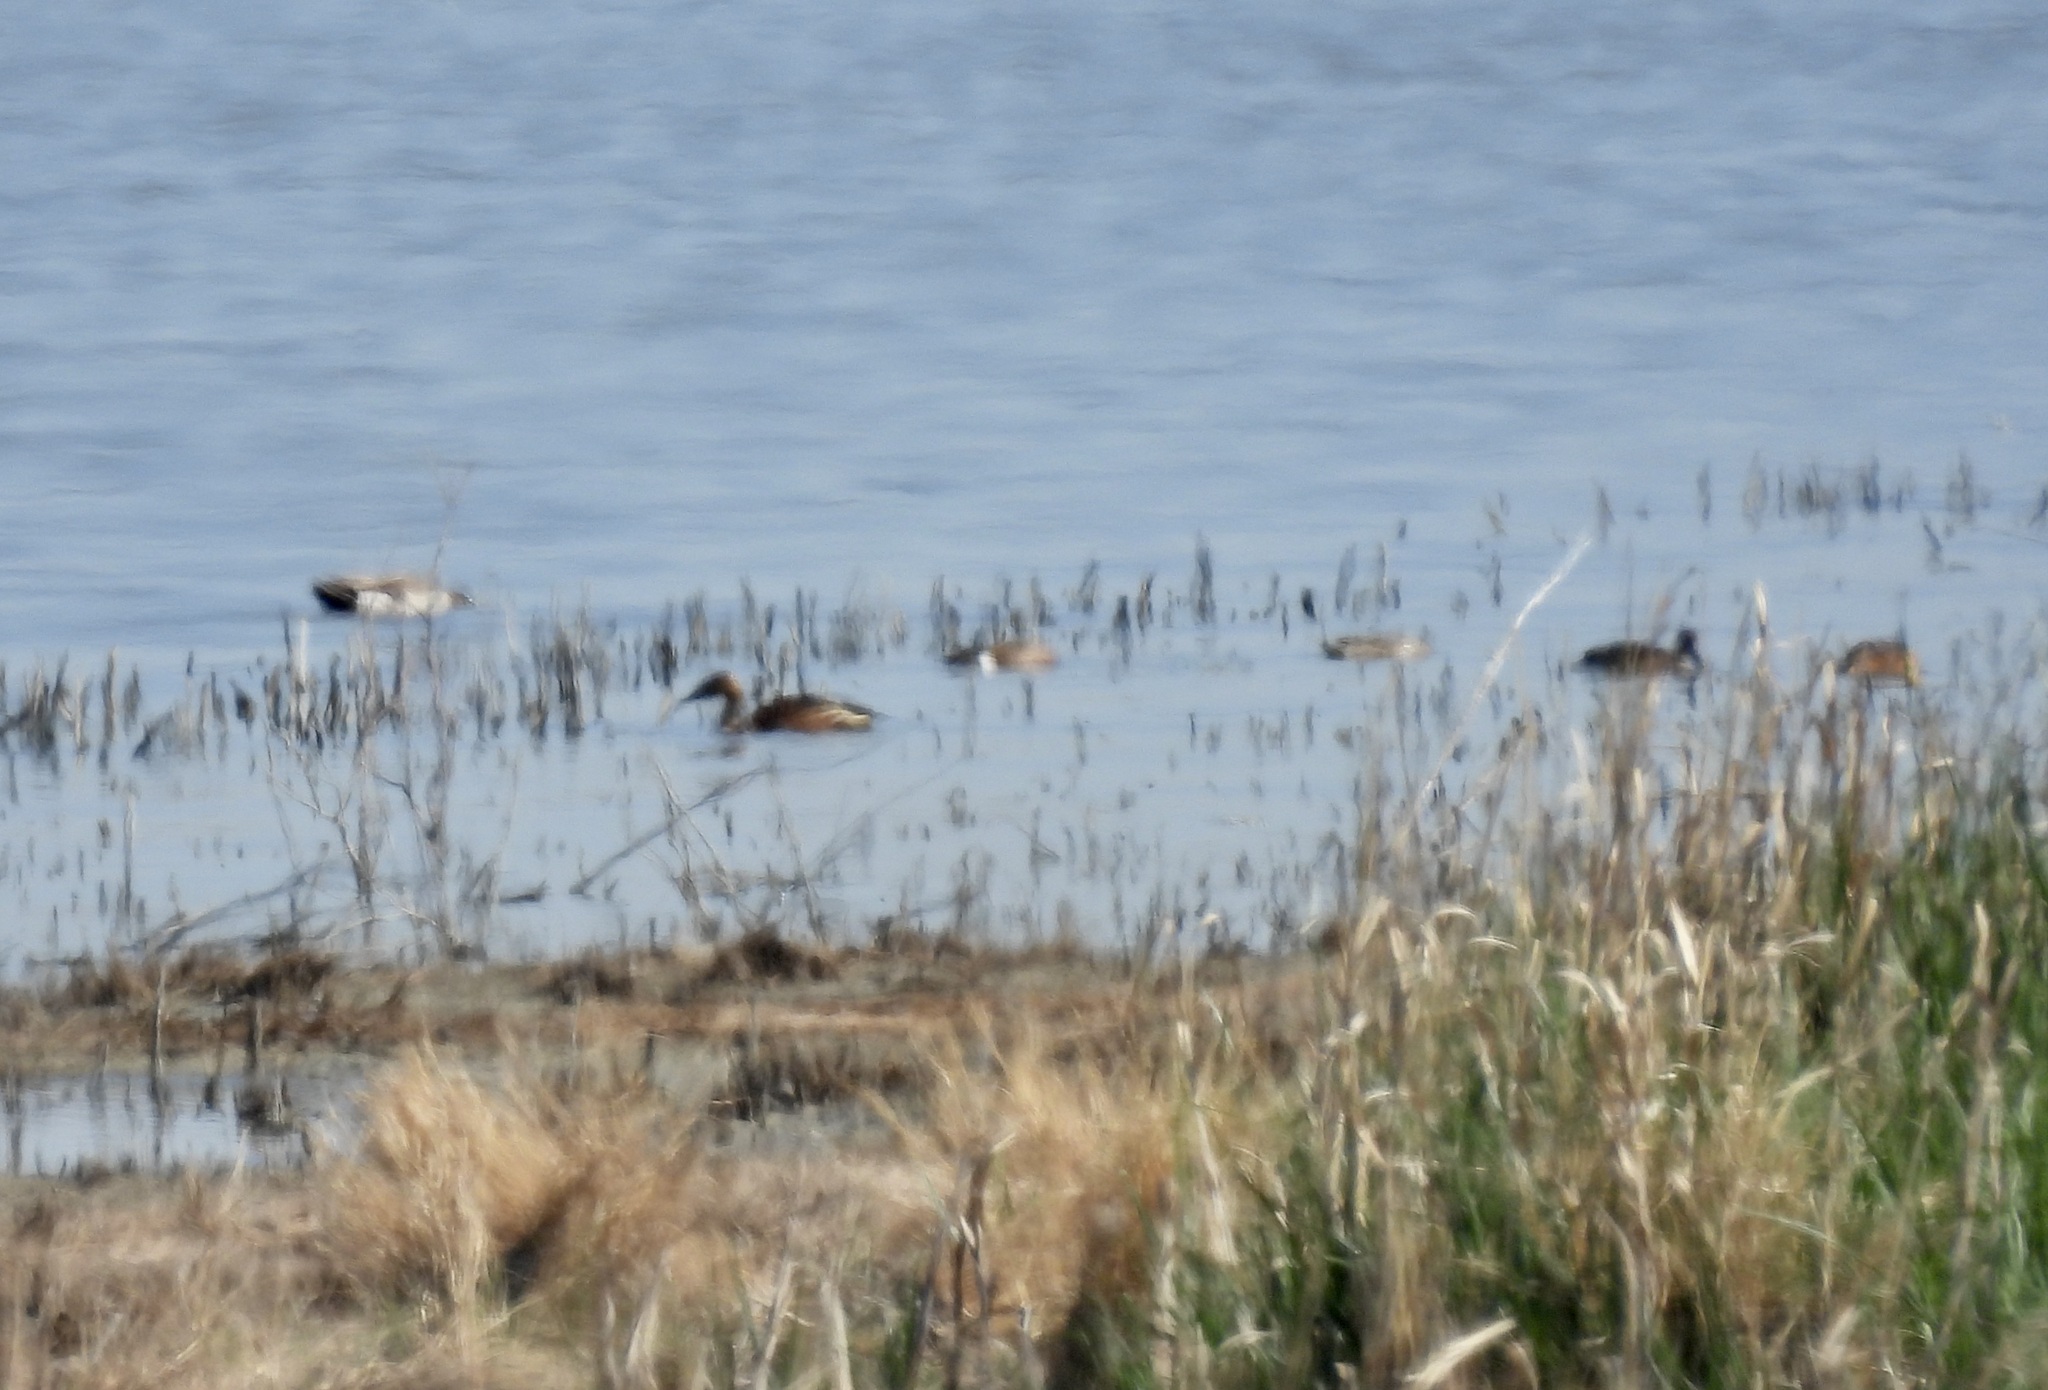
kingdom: Animalia
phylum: Chordata
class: Aves
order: Anseriformes
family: Anatidae
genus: Dendrocygna
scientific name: Dendrocygna bicolor
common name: Fulvous whistling duck
